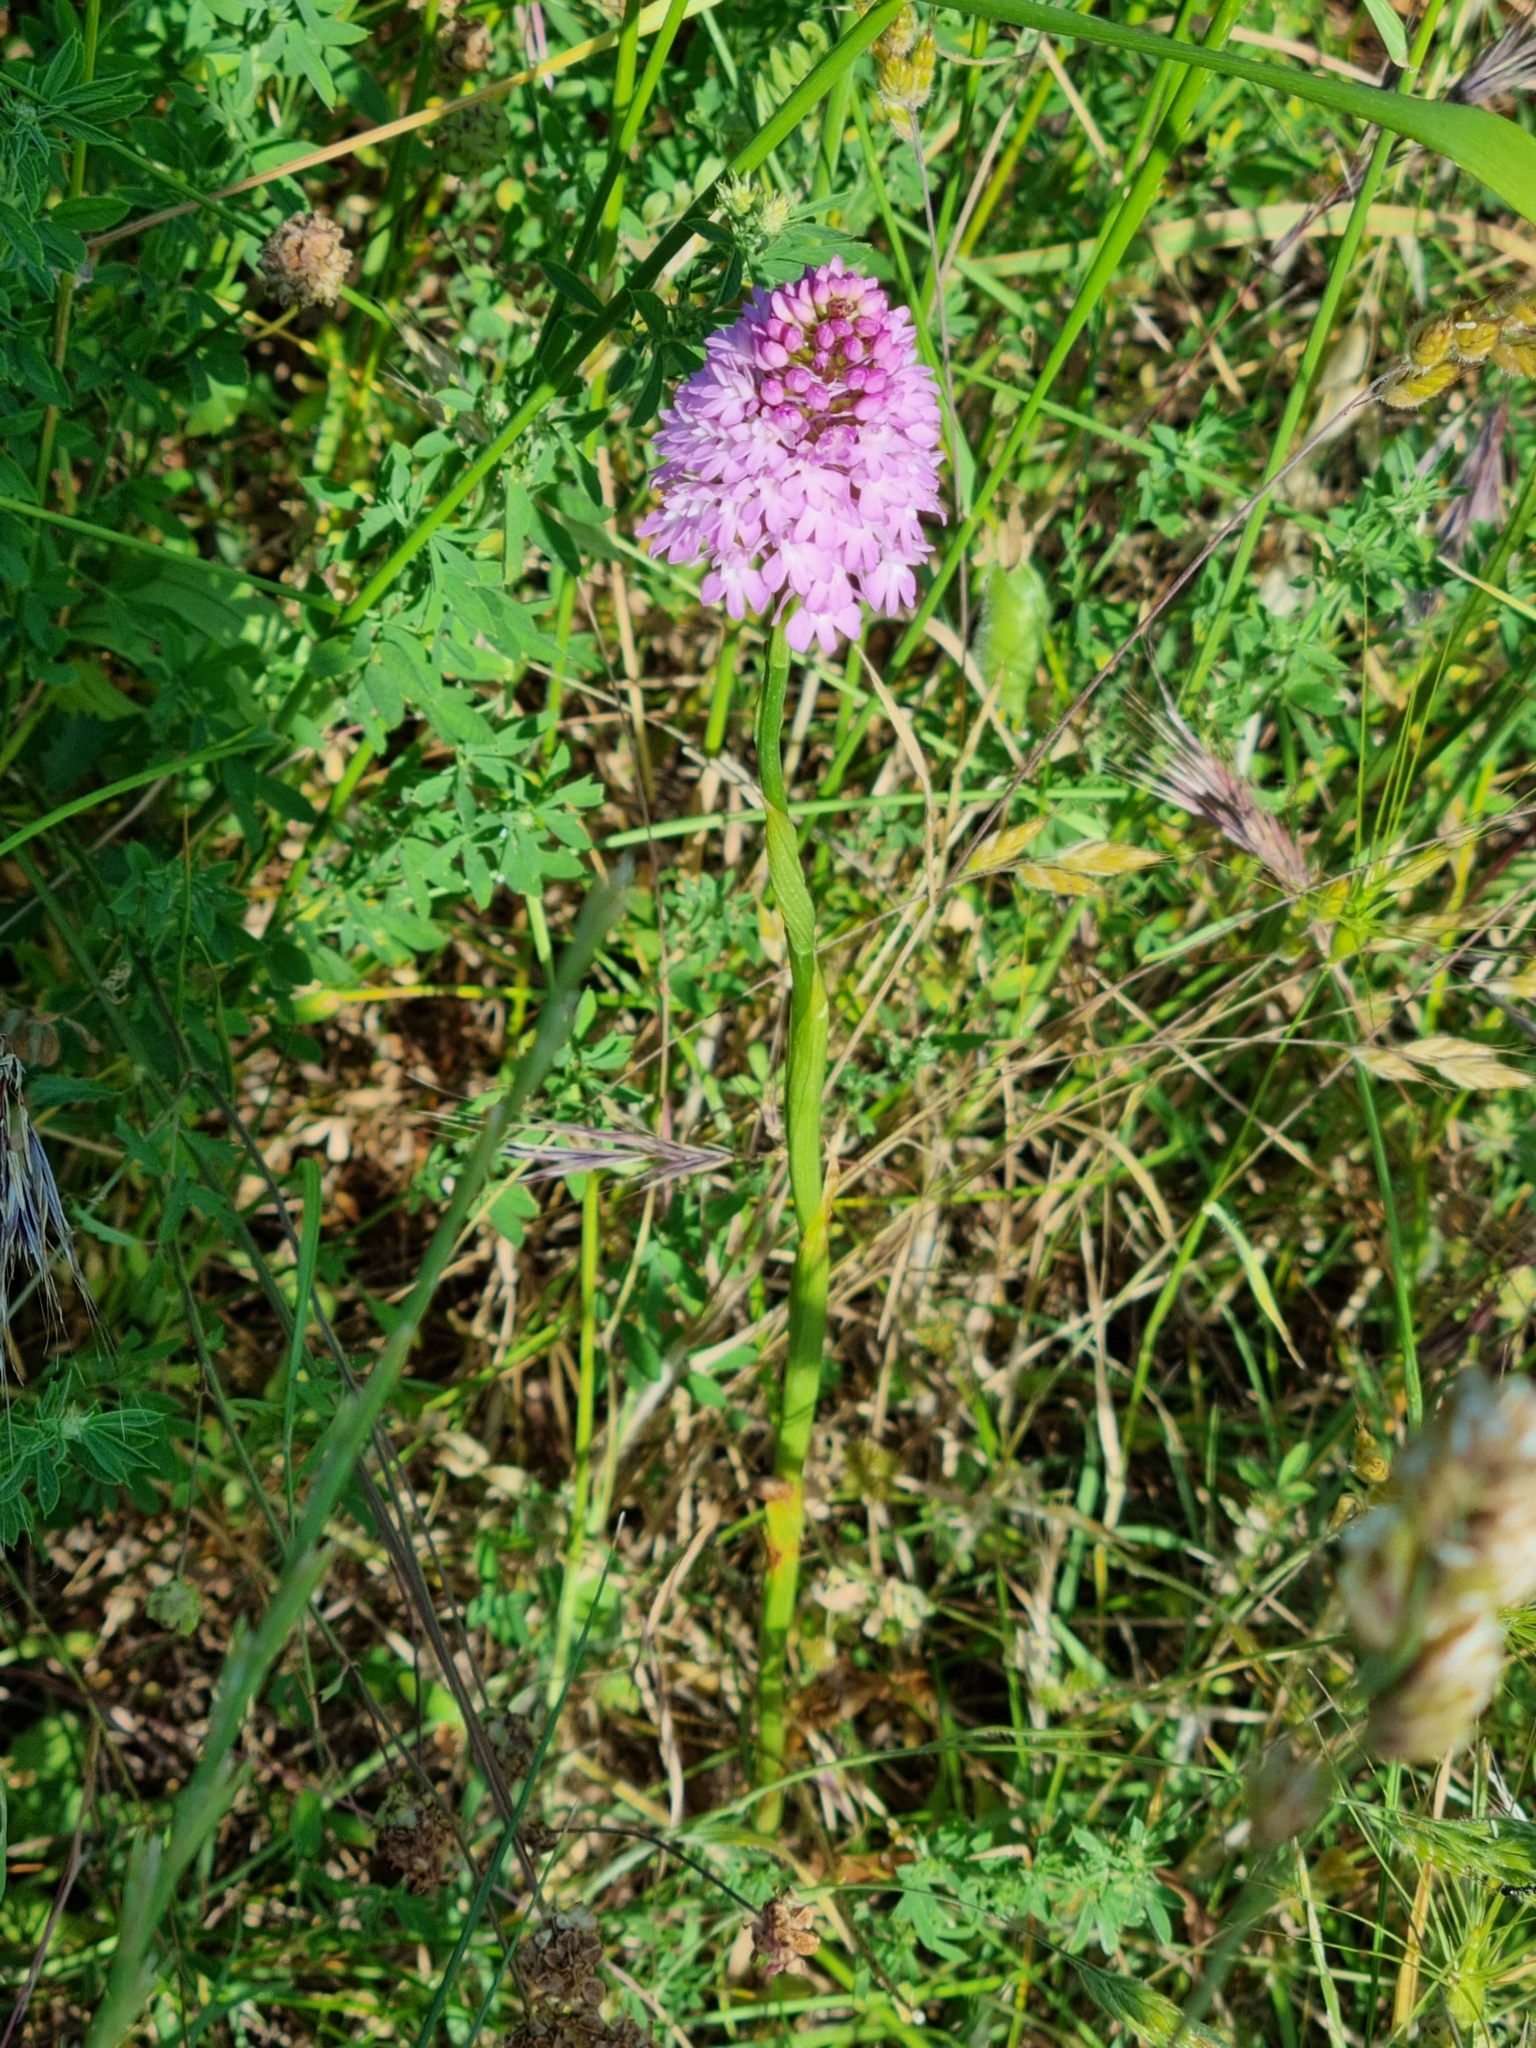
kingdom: Plantae
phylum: Tracheophyta
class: Liliopsida
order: Asparagales
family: Orchidaceae
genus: Anacamptis
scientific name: Anacamptis pyramidalis
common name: Pyramidal orchid
